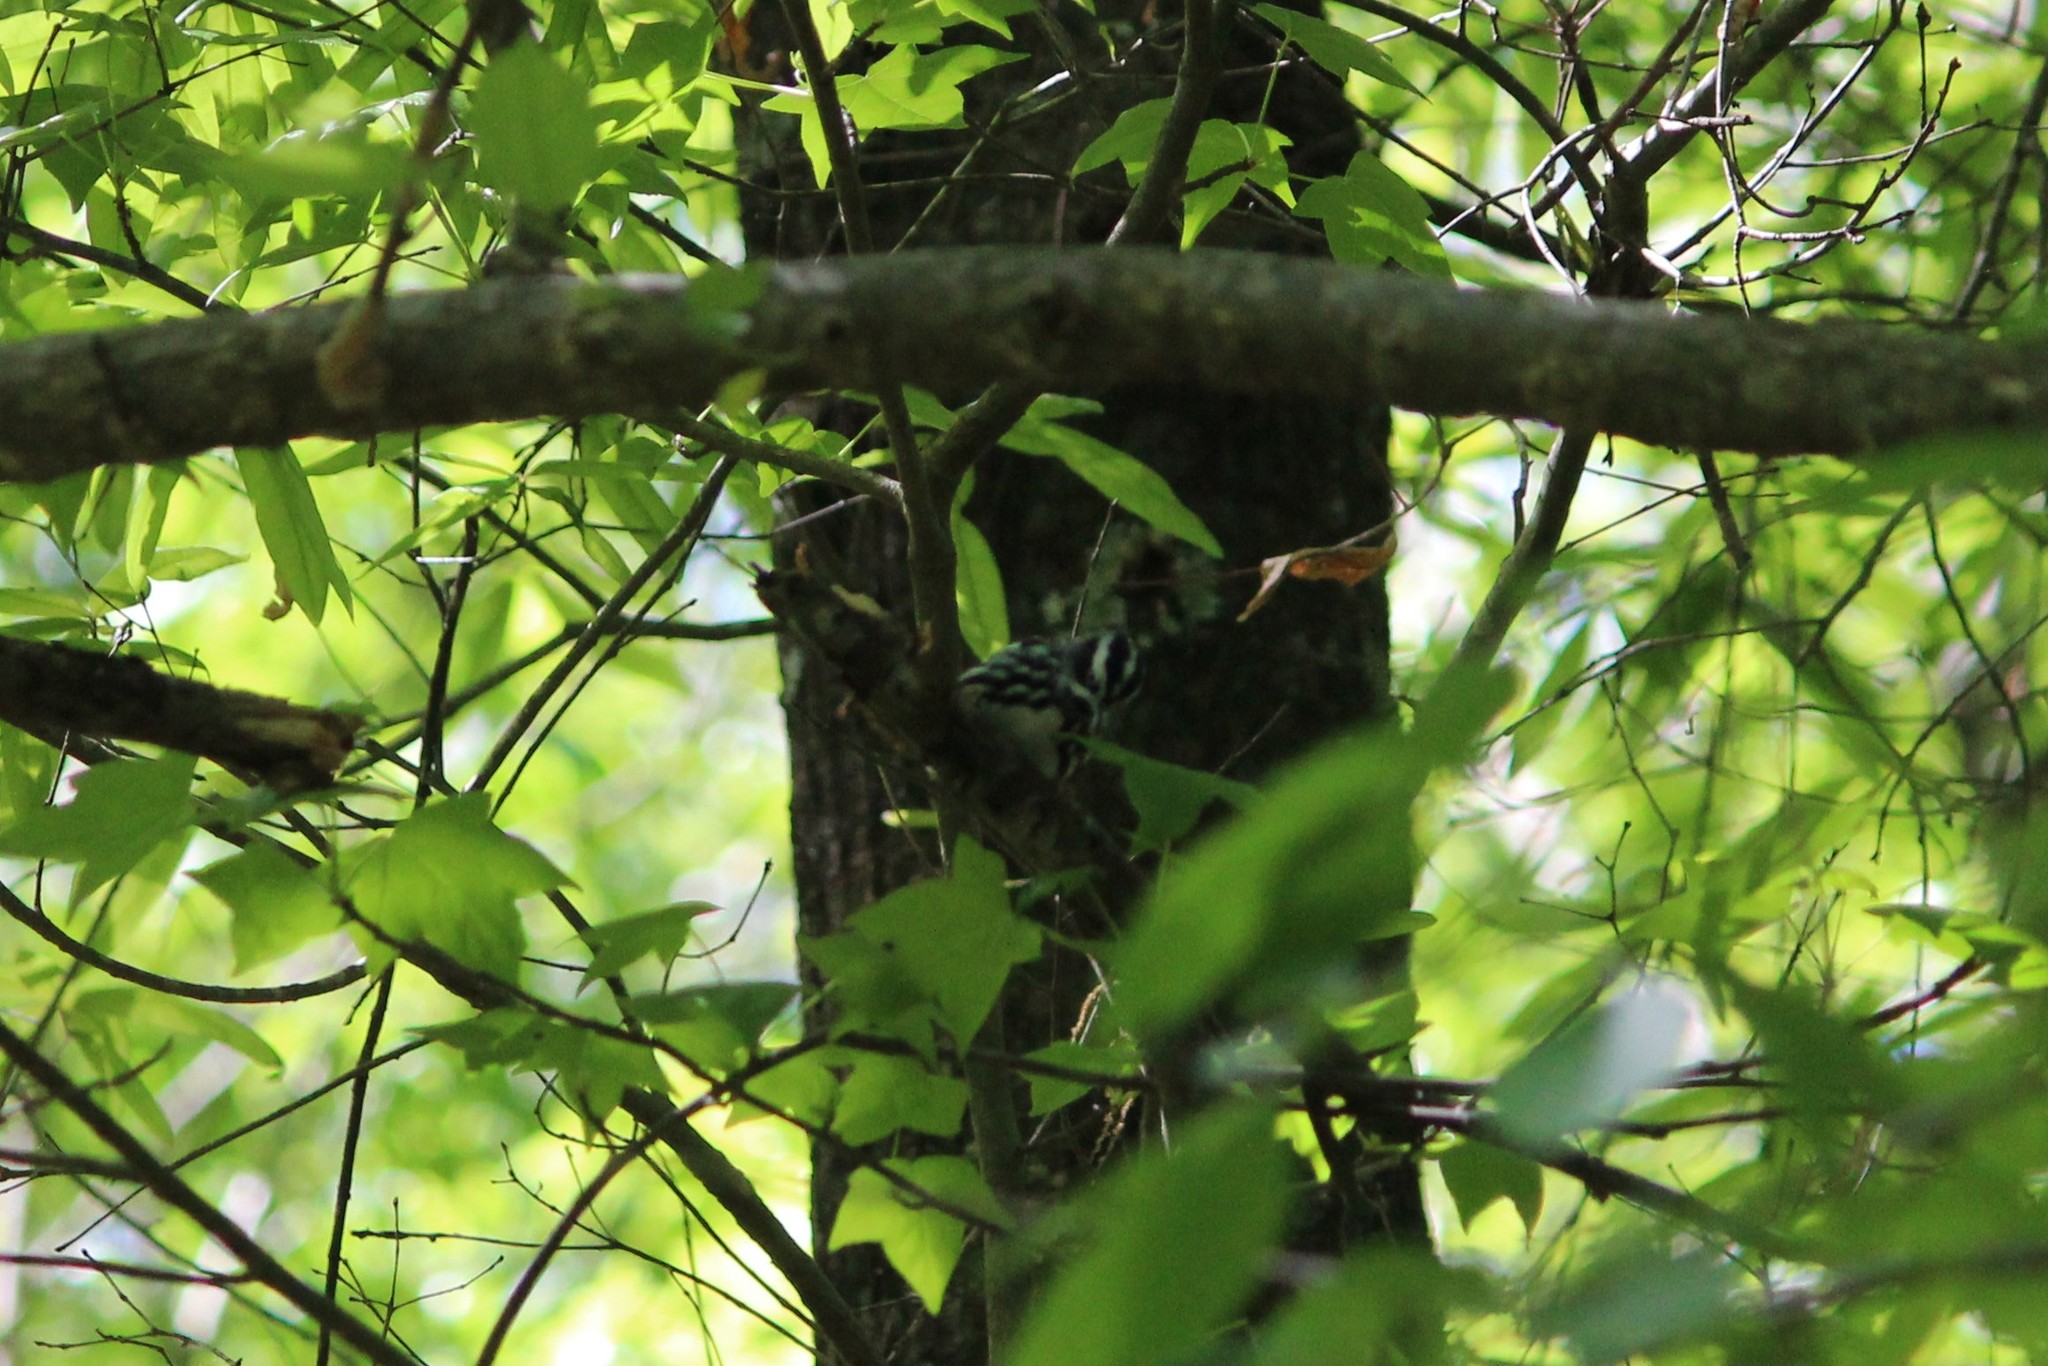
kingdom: Animalia
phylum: Chordata
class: Aves
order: Passeriformes
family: Parulidae
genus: Mniotilta
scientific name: Mniotilta varia
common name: Black-and-white warbler
